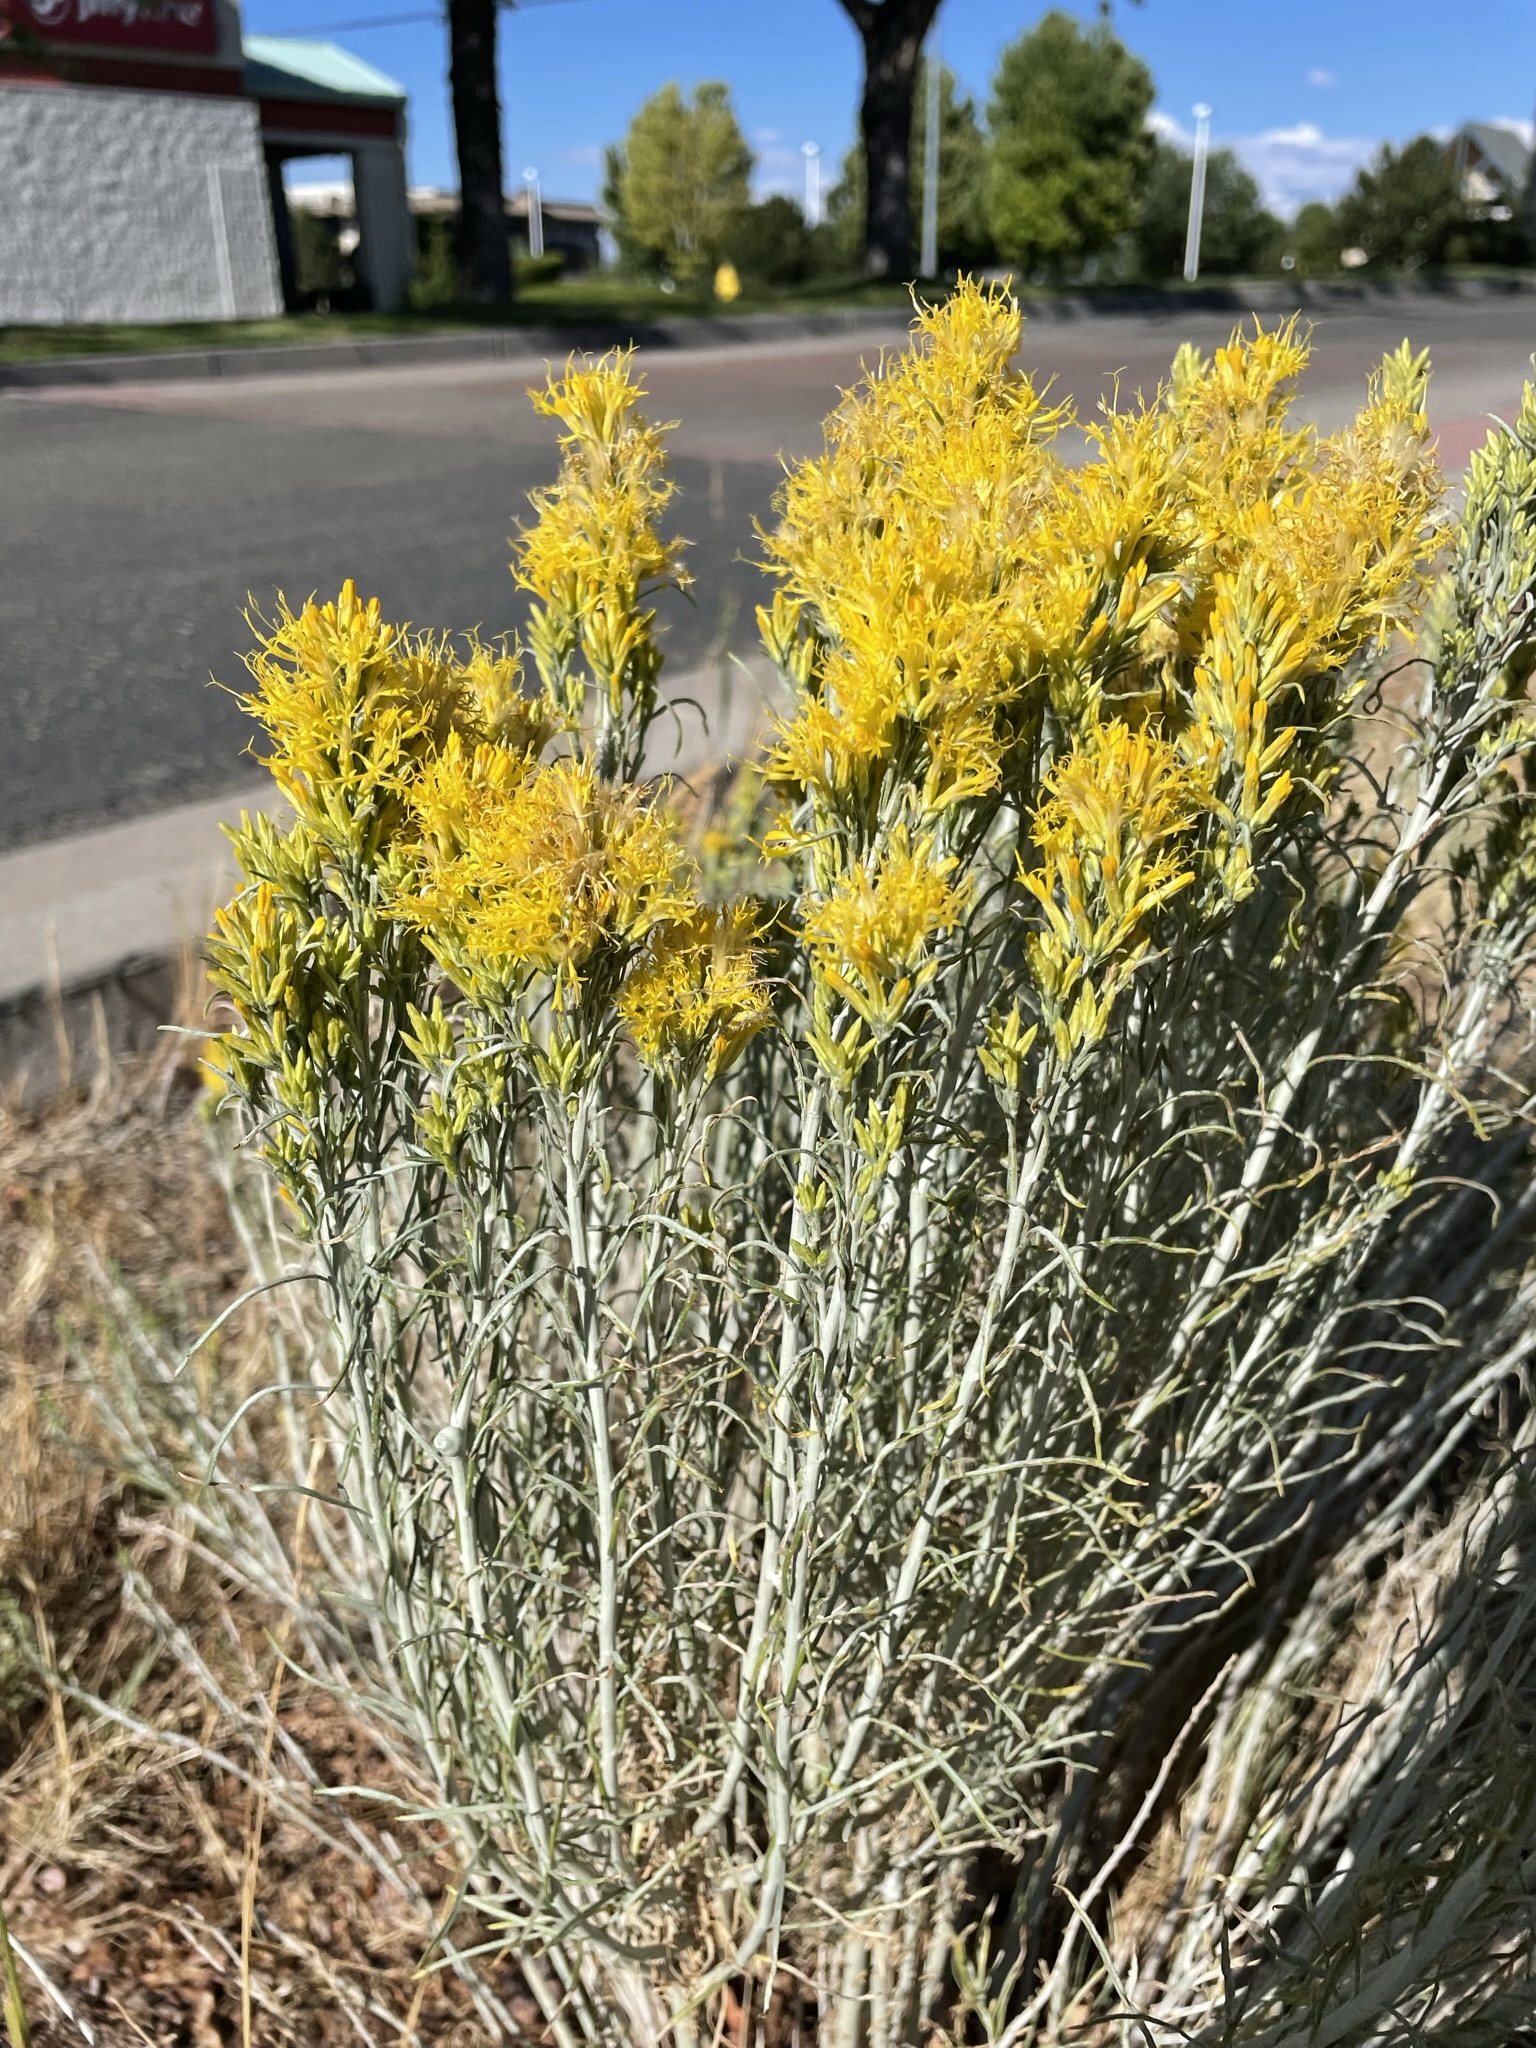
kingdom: Plantae
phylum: Tracheophyta
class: Magnoliopsida
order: Asterales
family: Asteraceae
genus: Ericameria
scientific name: Ericameria nauseosa
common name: Rubber rabbitbrush
